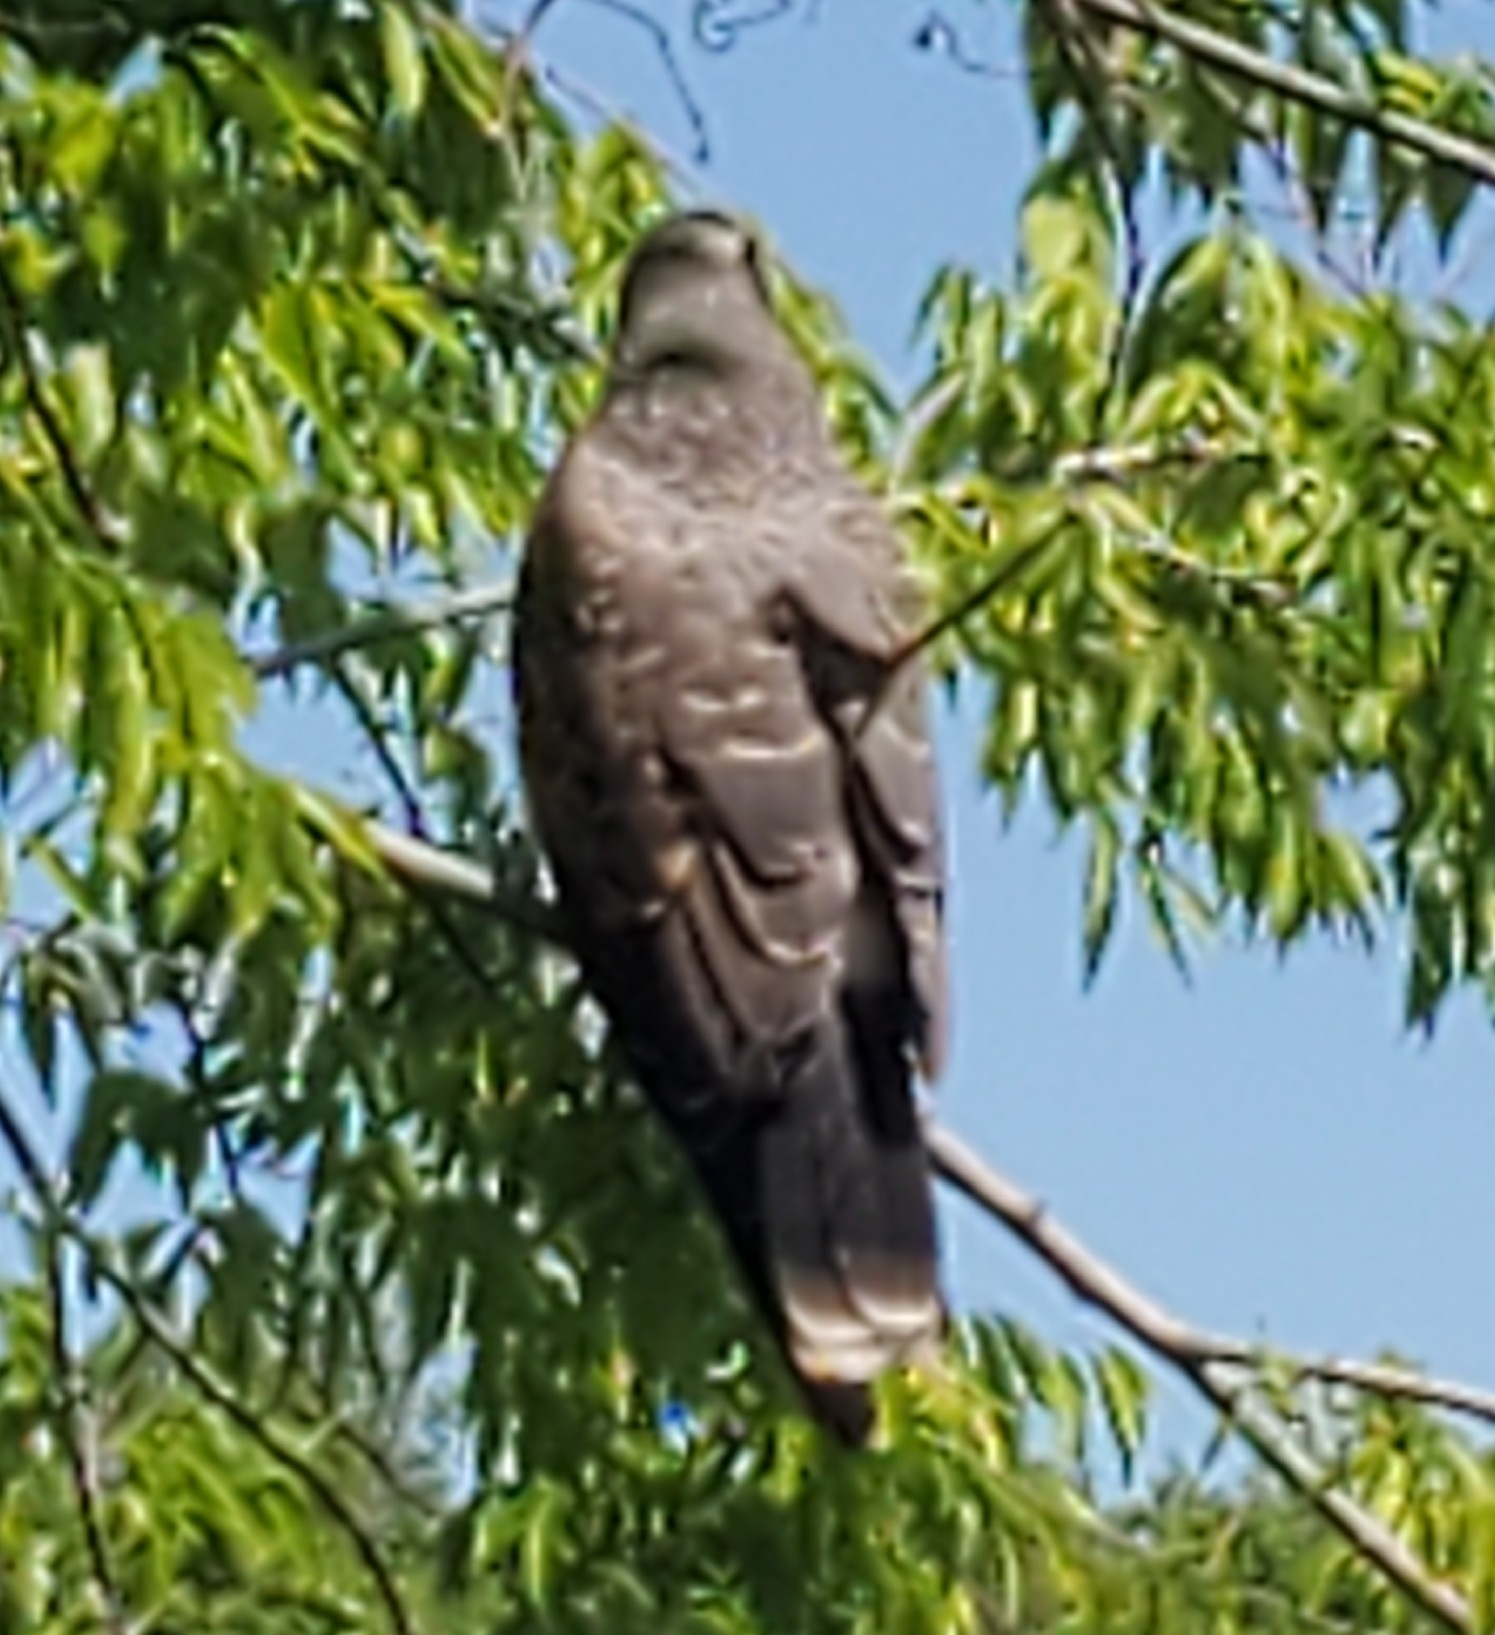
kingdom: Animalia
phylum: Chordata
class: Aves
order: Accipitriformes
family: Accipitridae
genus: Rostrhamus
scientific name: Rostrhamus sociabilis
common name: Snail kite
